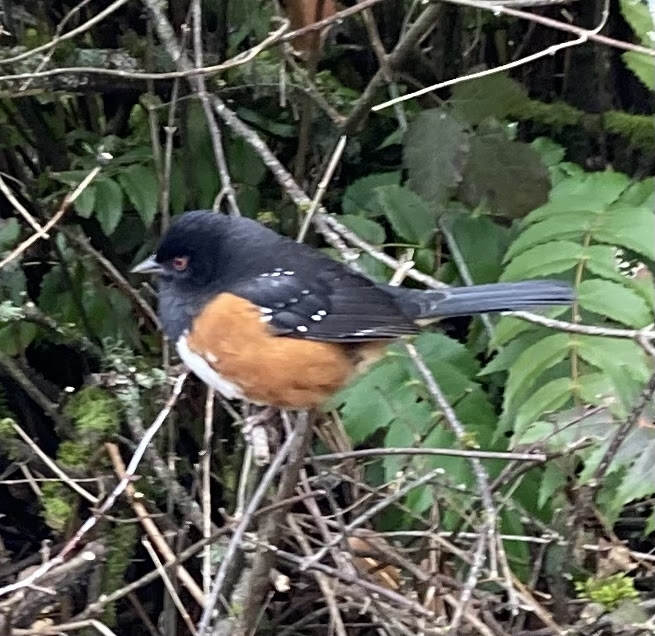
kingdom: Animalia
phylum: Chordata
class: Aves
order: Passeriformes
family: Passerellidae
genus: Pipilo
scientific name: Pipilo maculatus
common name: Spotted towhee
